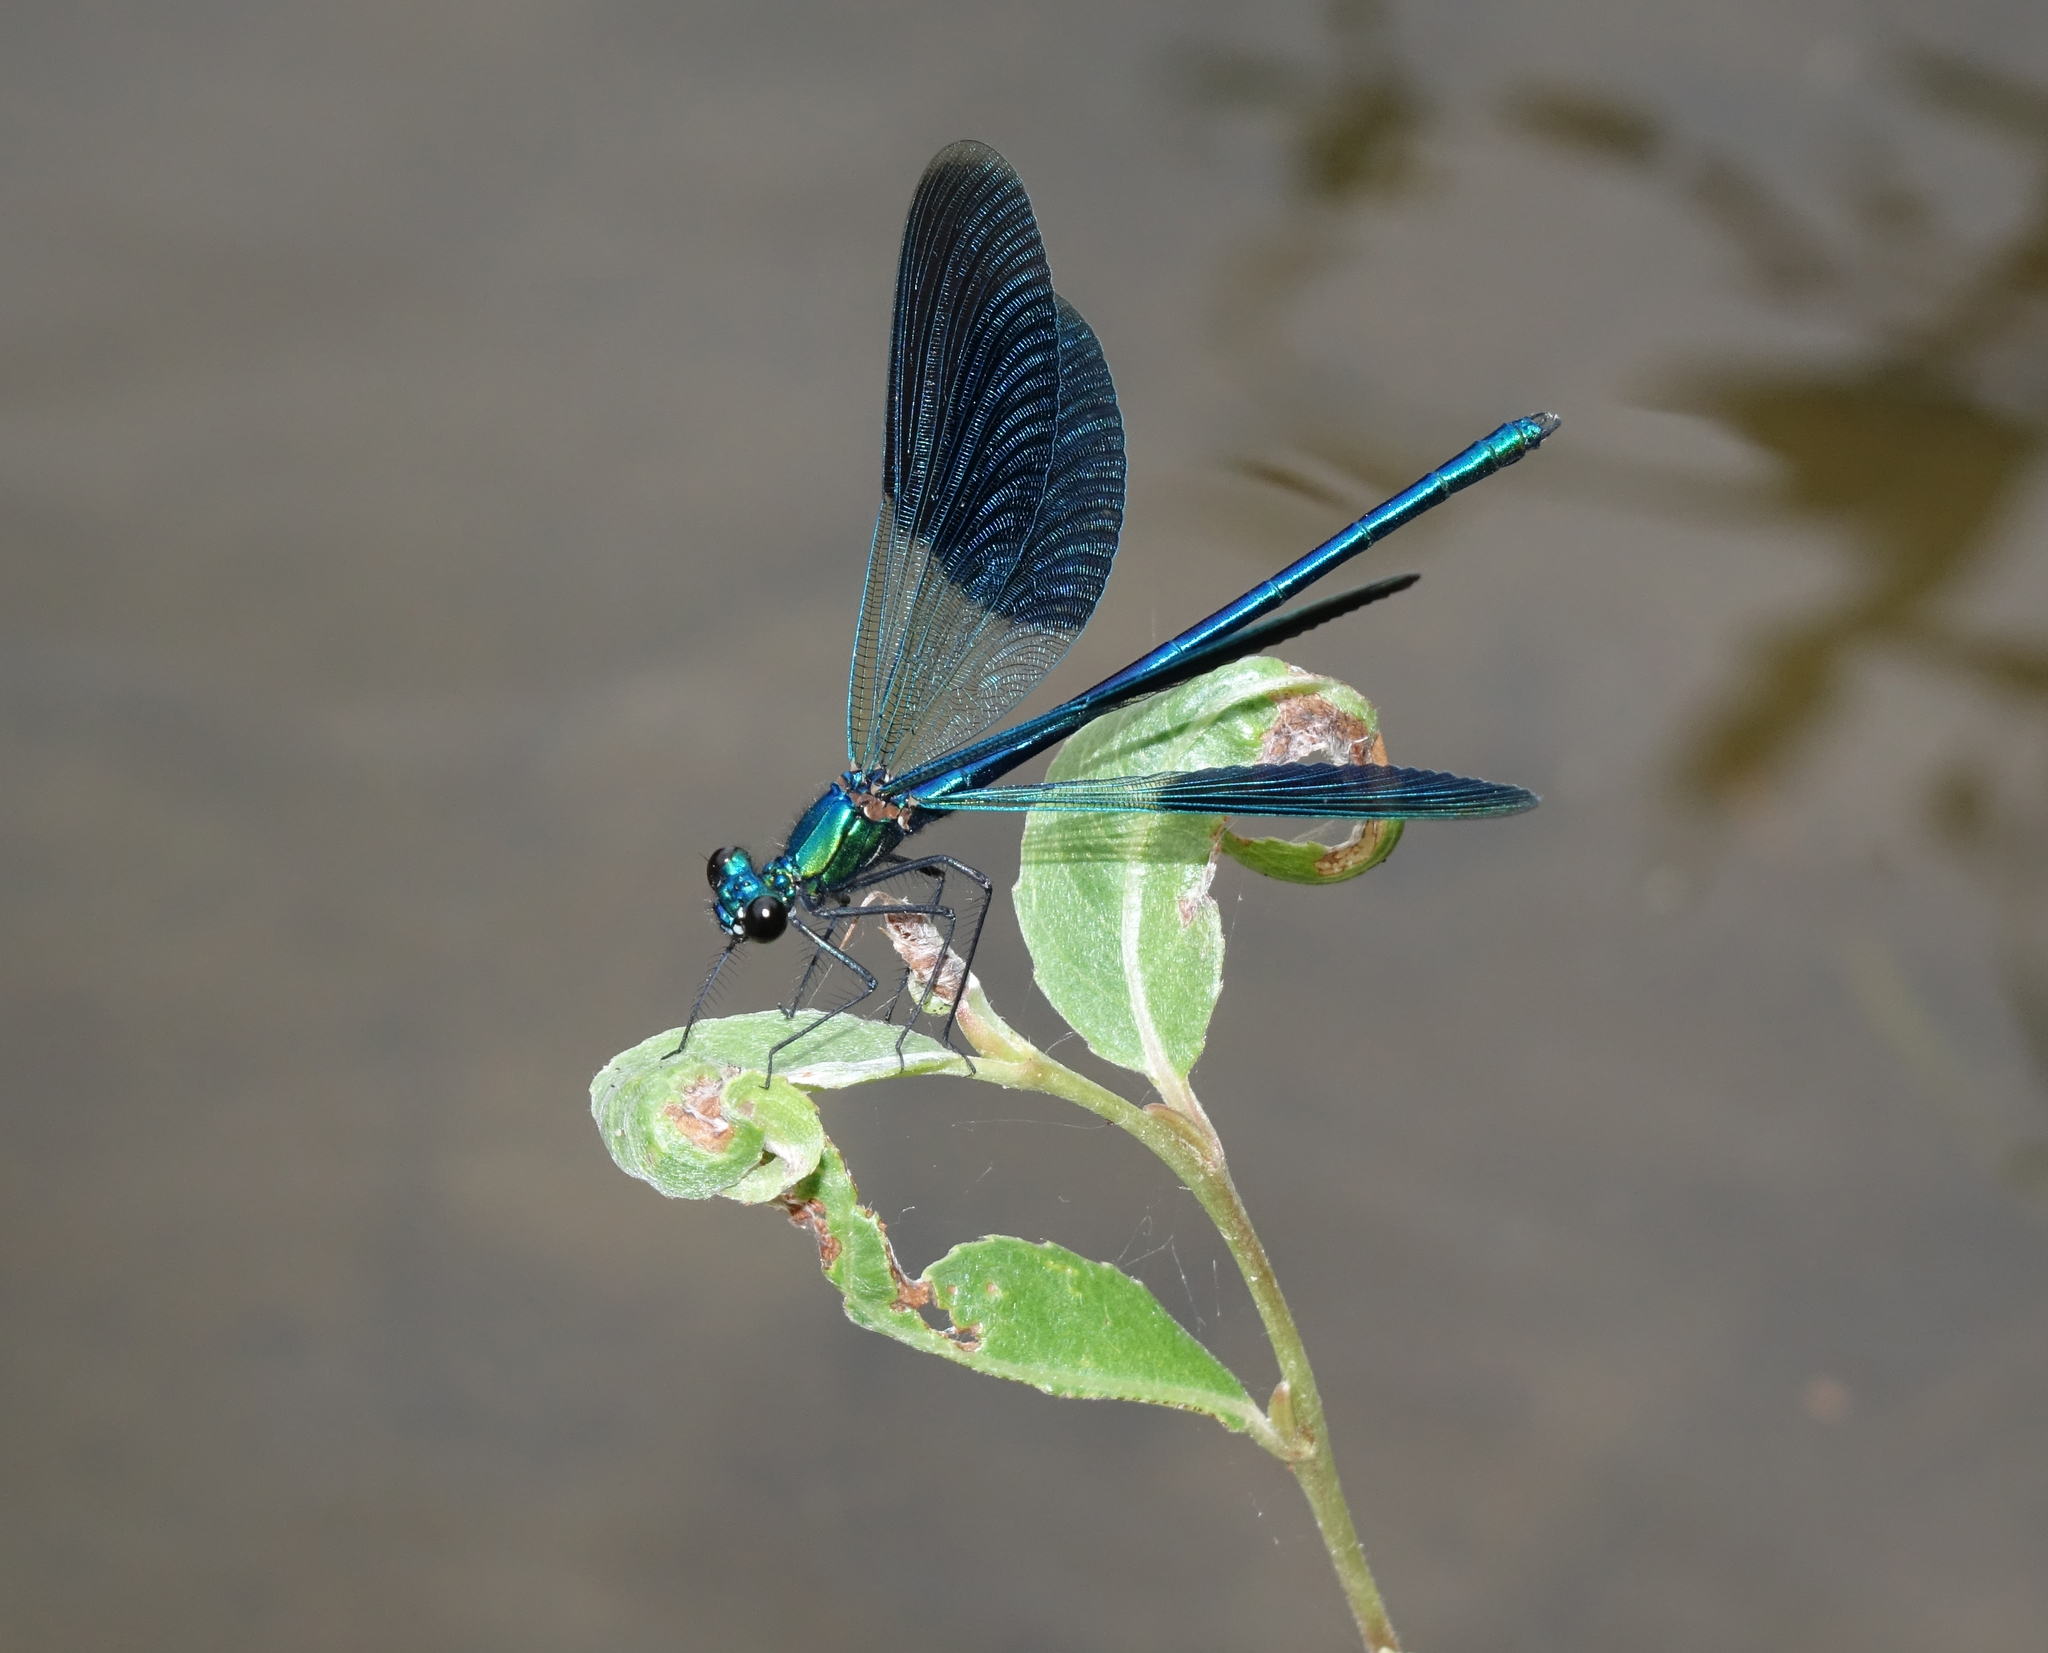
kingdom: Animalia
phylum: Arthropoda
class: Insecta
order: Odonata
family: Calopterygidae
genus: Calopteryx
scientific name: Calopteryx splendens
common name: Banded demoiselle
